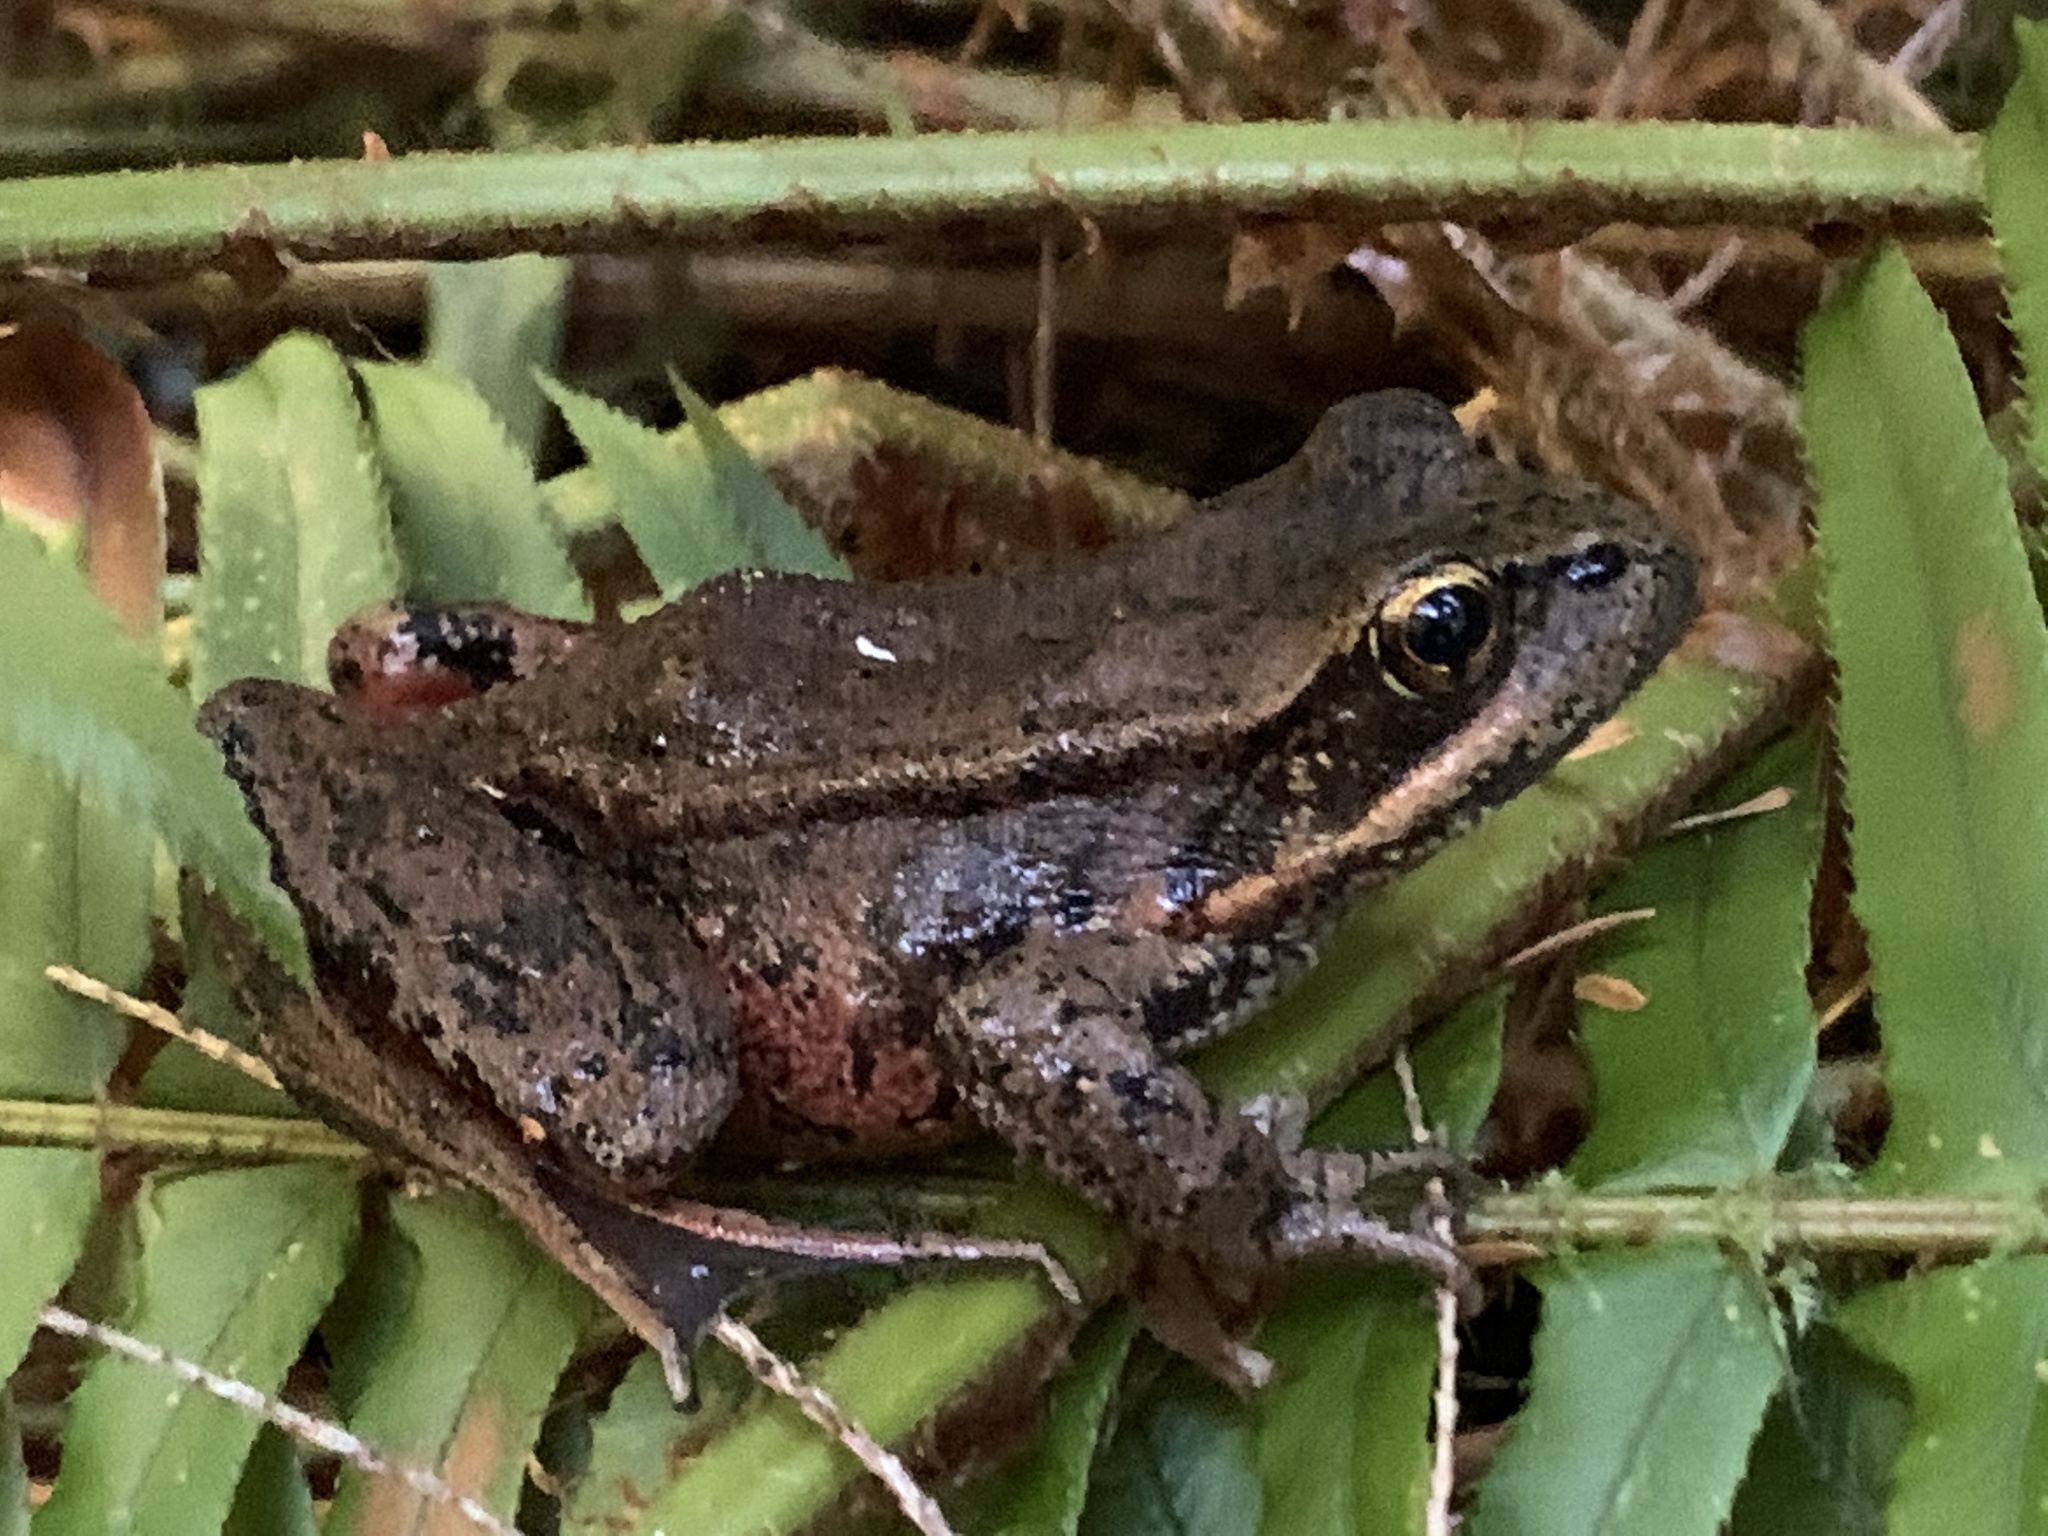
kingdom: Animalia
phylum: Chordata
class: Amphibia
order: Anura
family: Ranidae
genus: Rana
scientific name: Rana aurora
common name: Red-legged frog
